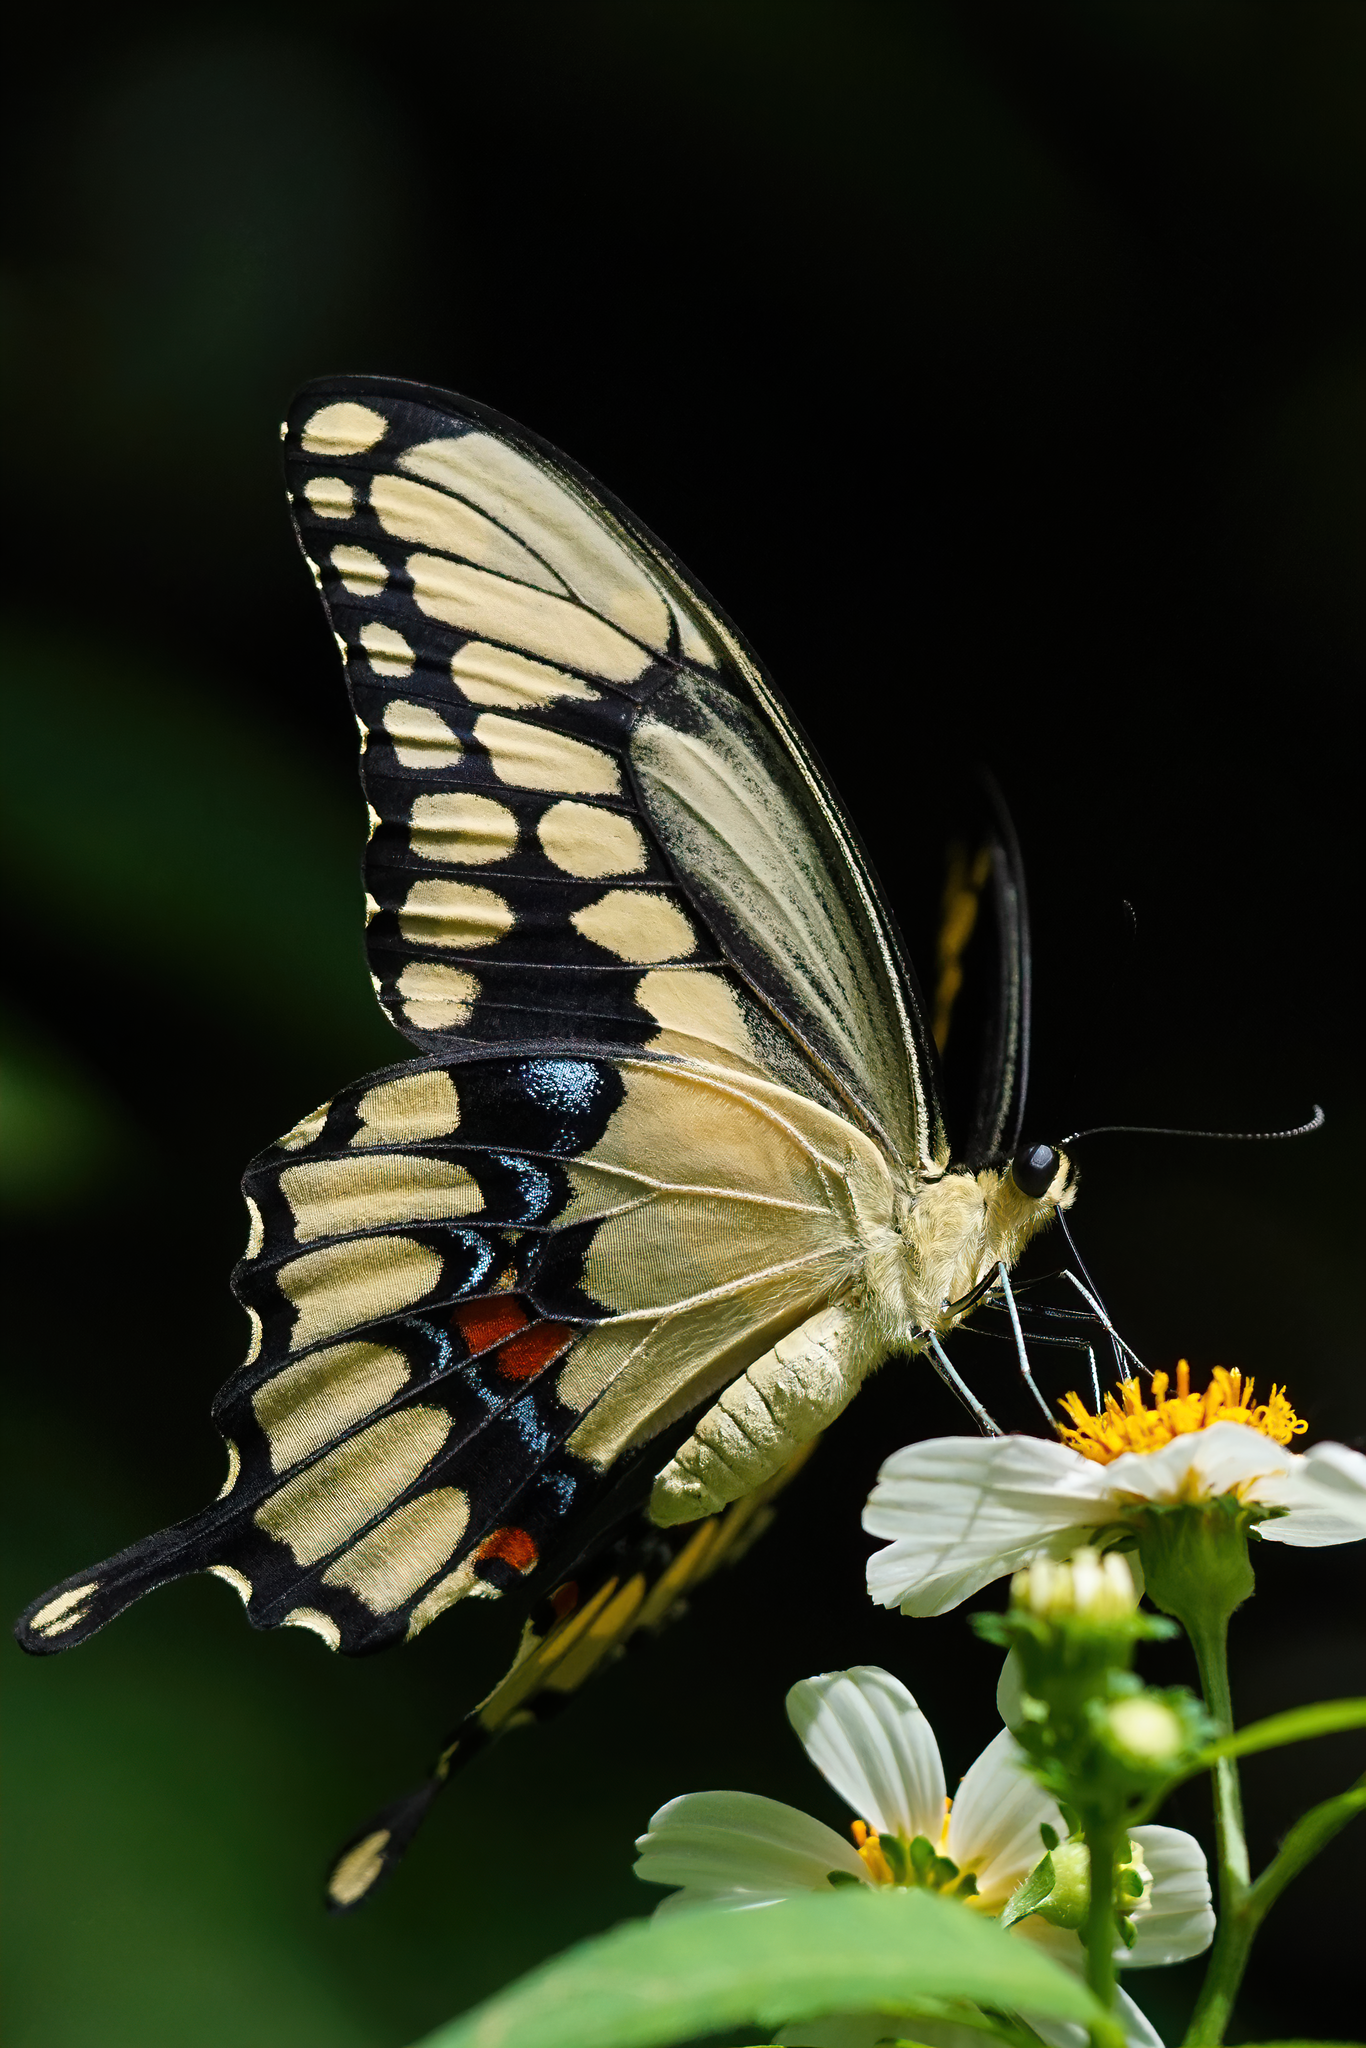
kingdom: Animalia
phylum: Arthropoda
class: Insecta
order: Lepidoptera
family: Papilionidae
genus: Papilio
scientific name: Papilio cresphontes
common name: Giant swallowtail
